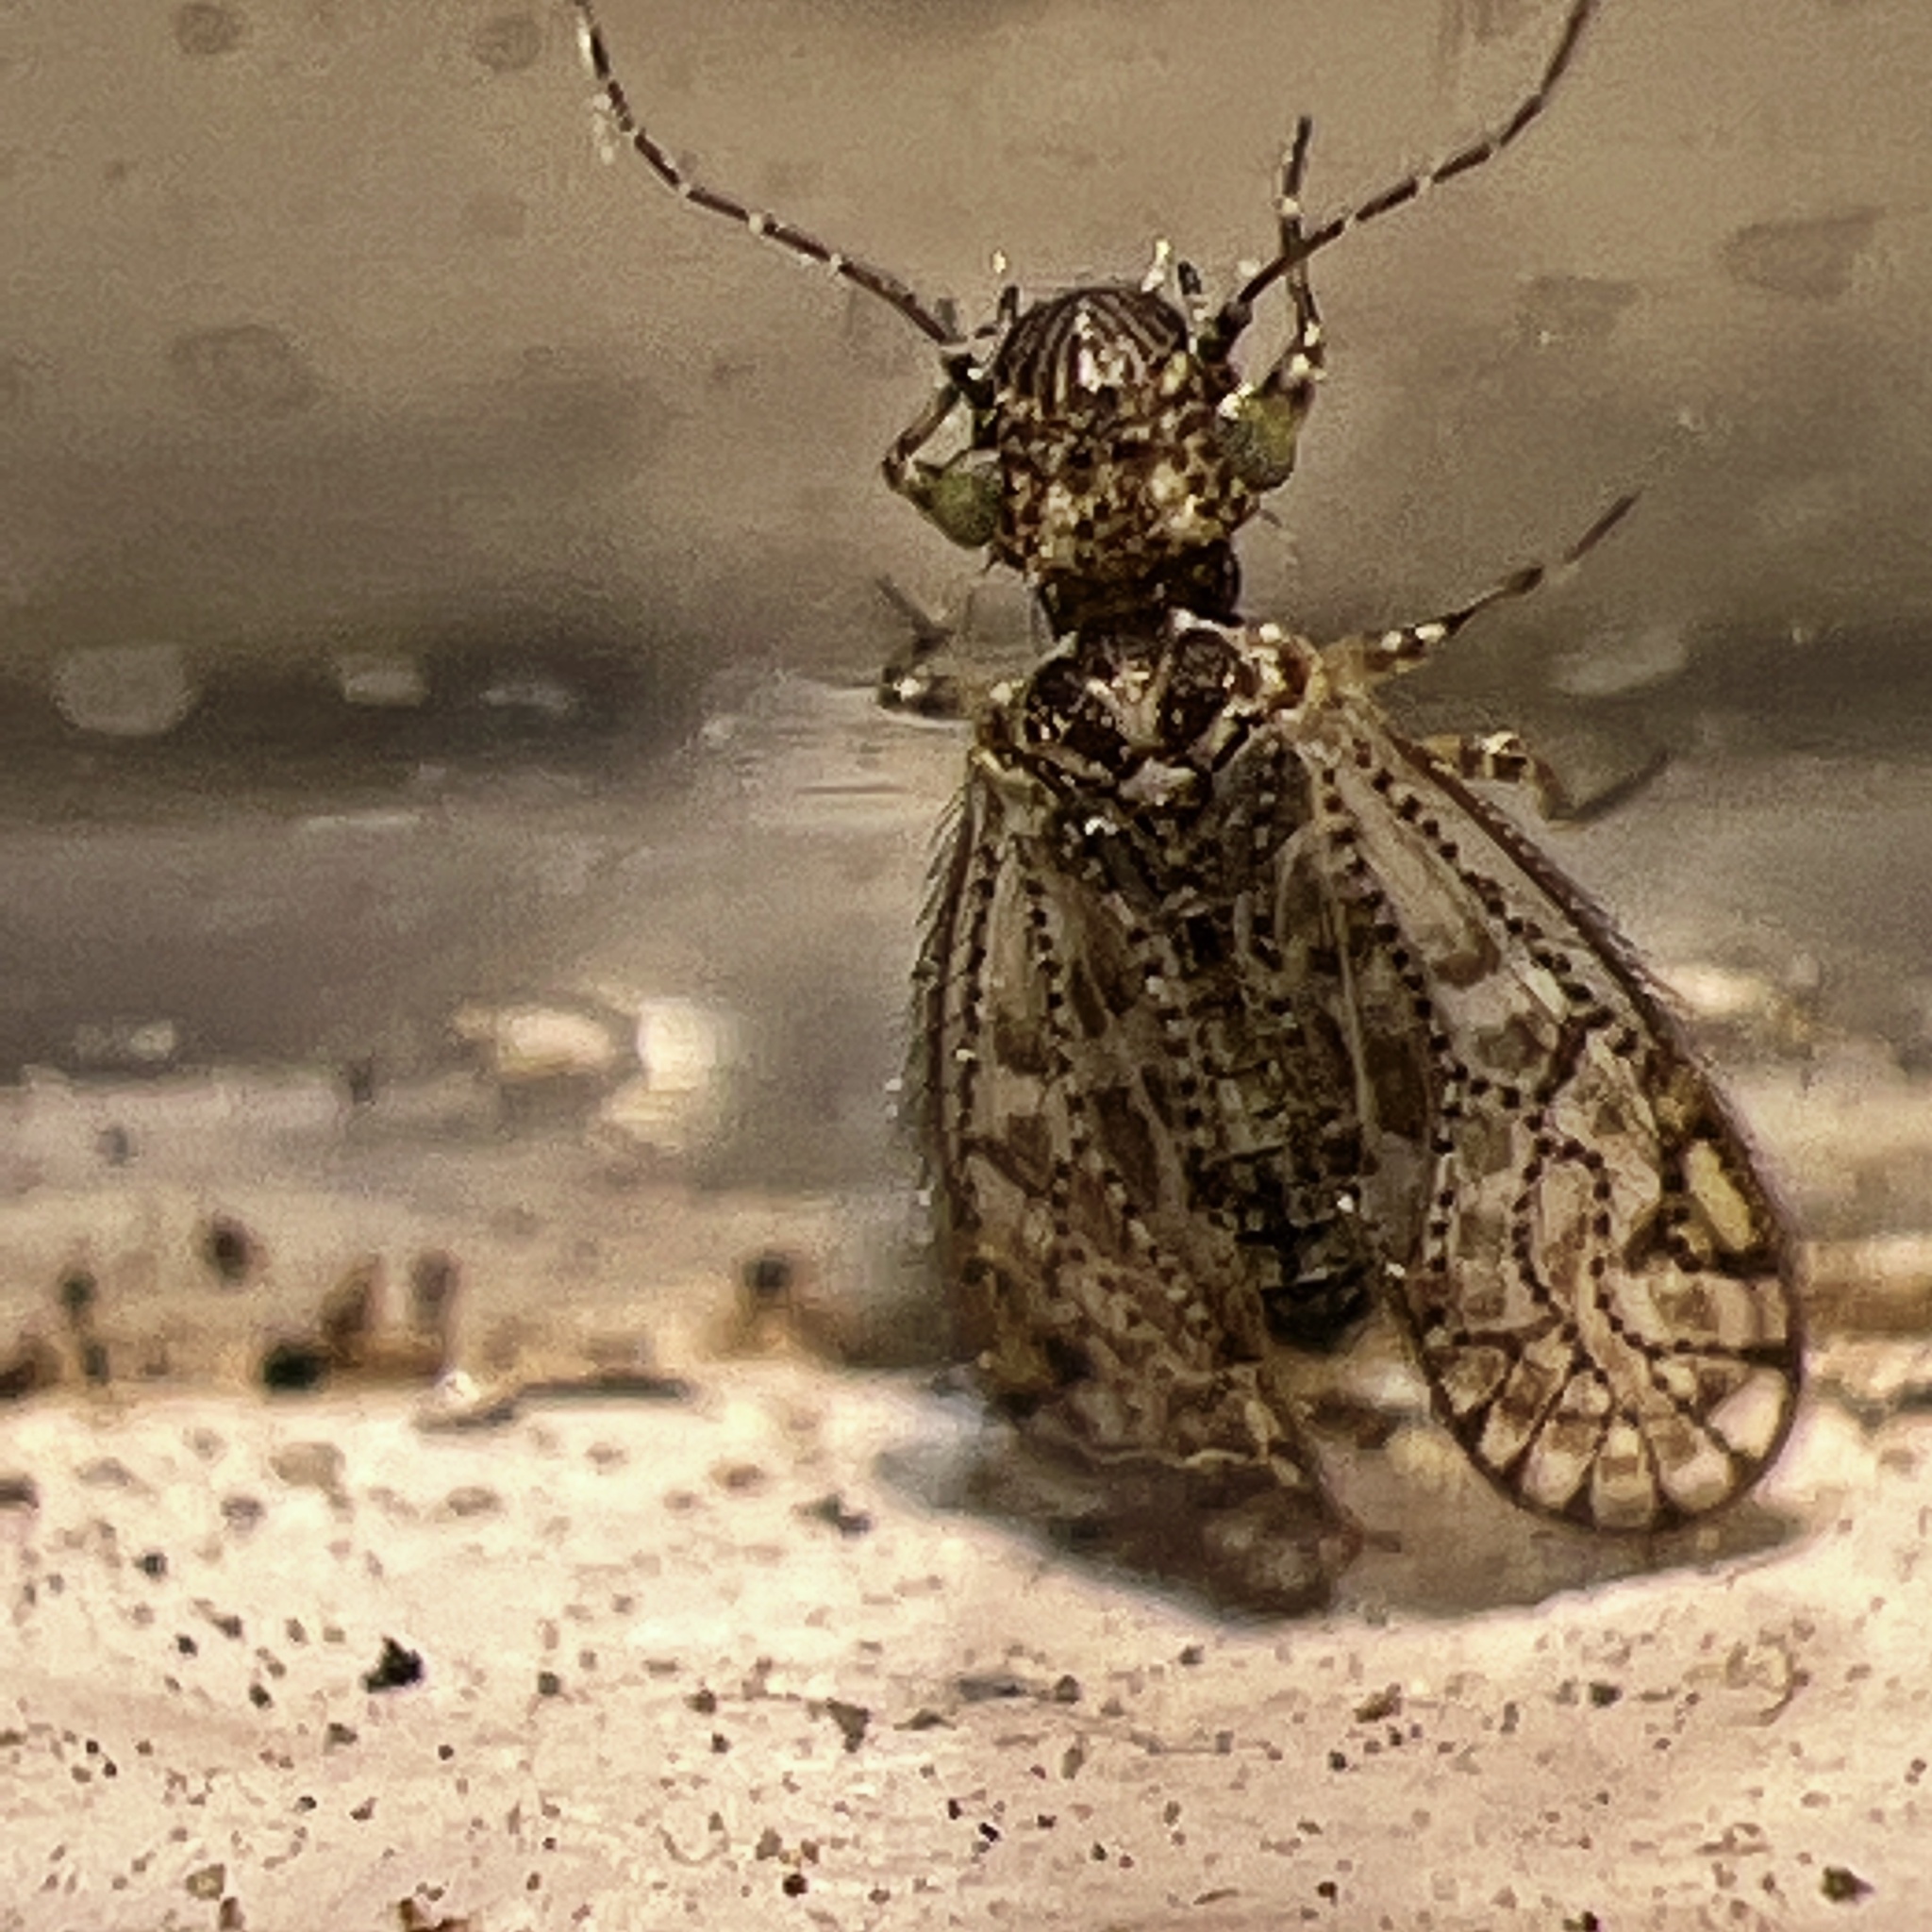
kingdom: Animalia
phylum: Arthropoda
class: Insecta
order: Psocodea
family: Philotarsidae
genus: Aaroniella
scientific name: Aaroniella badonneli
